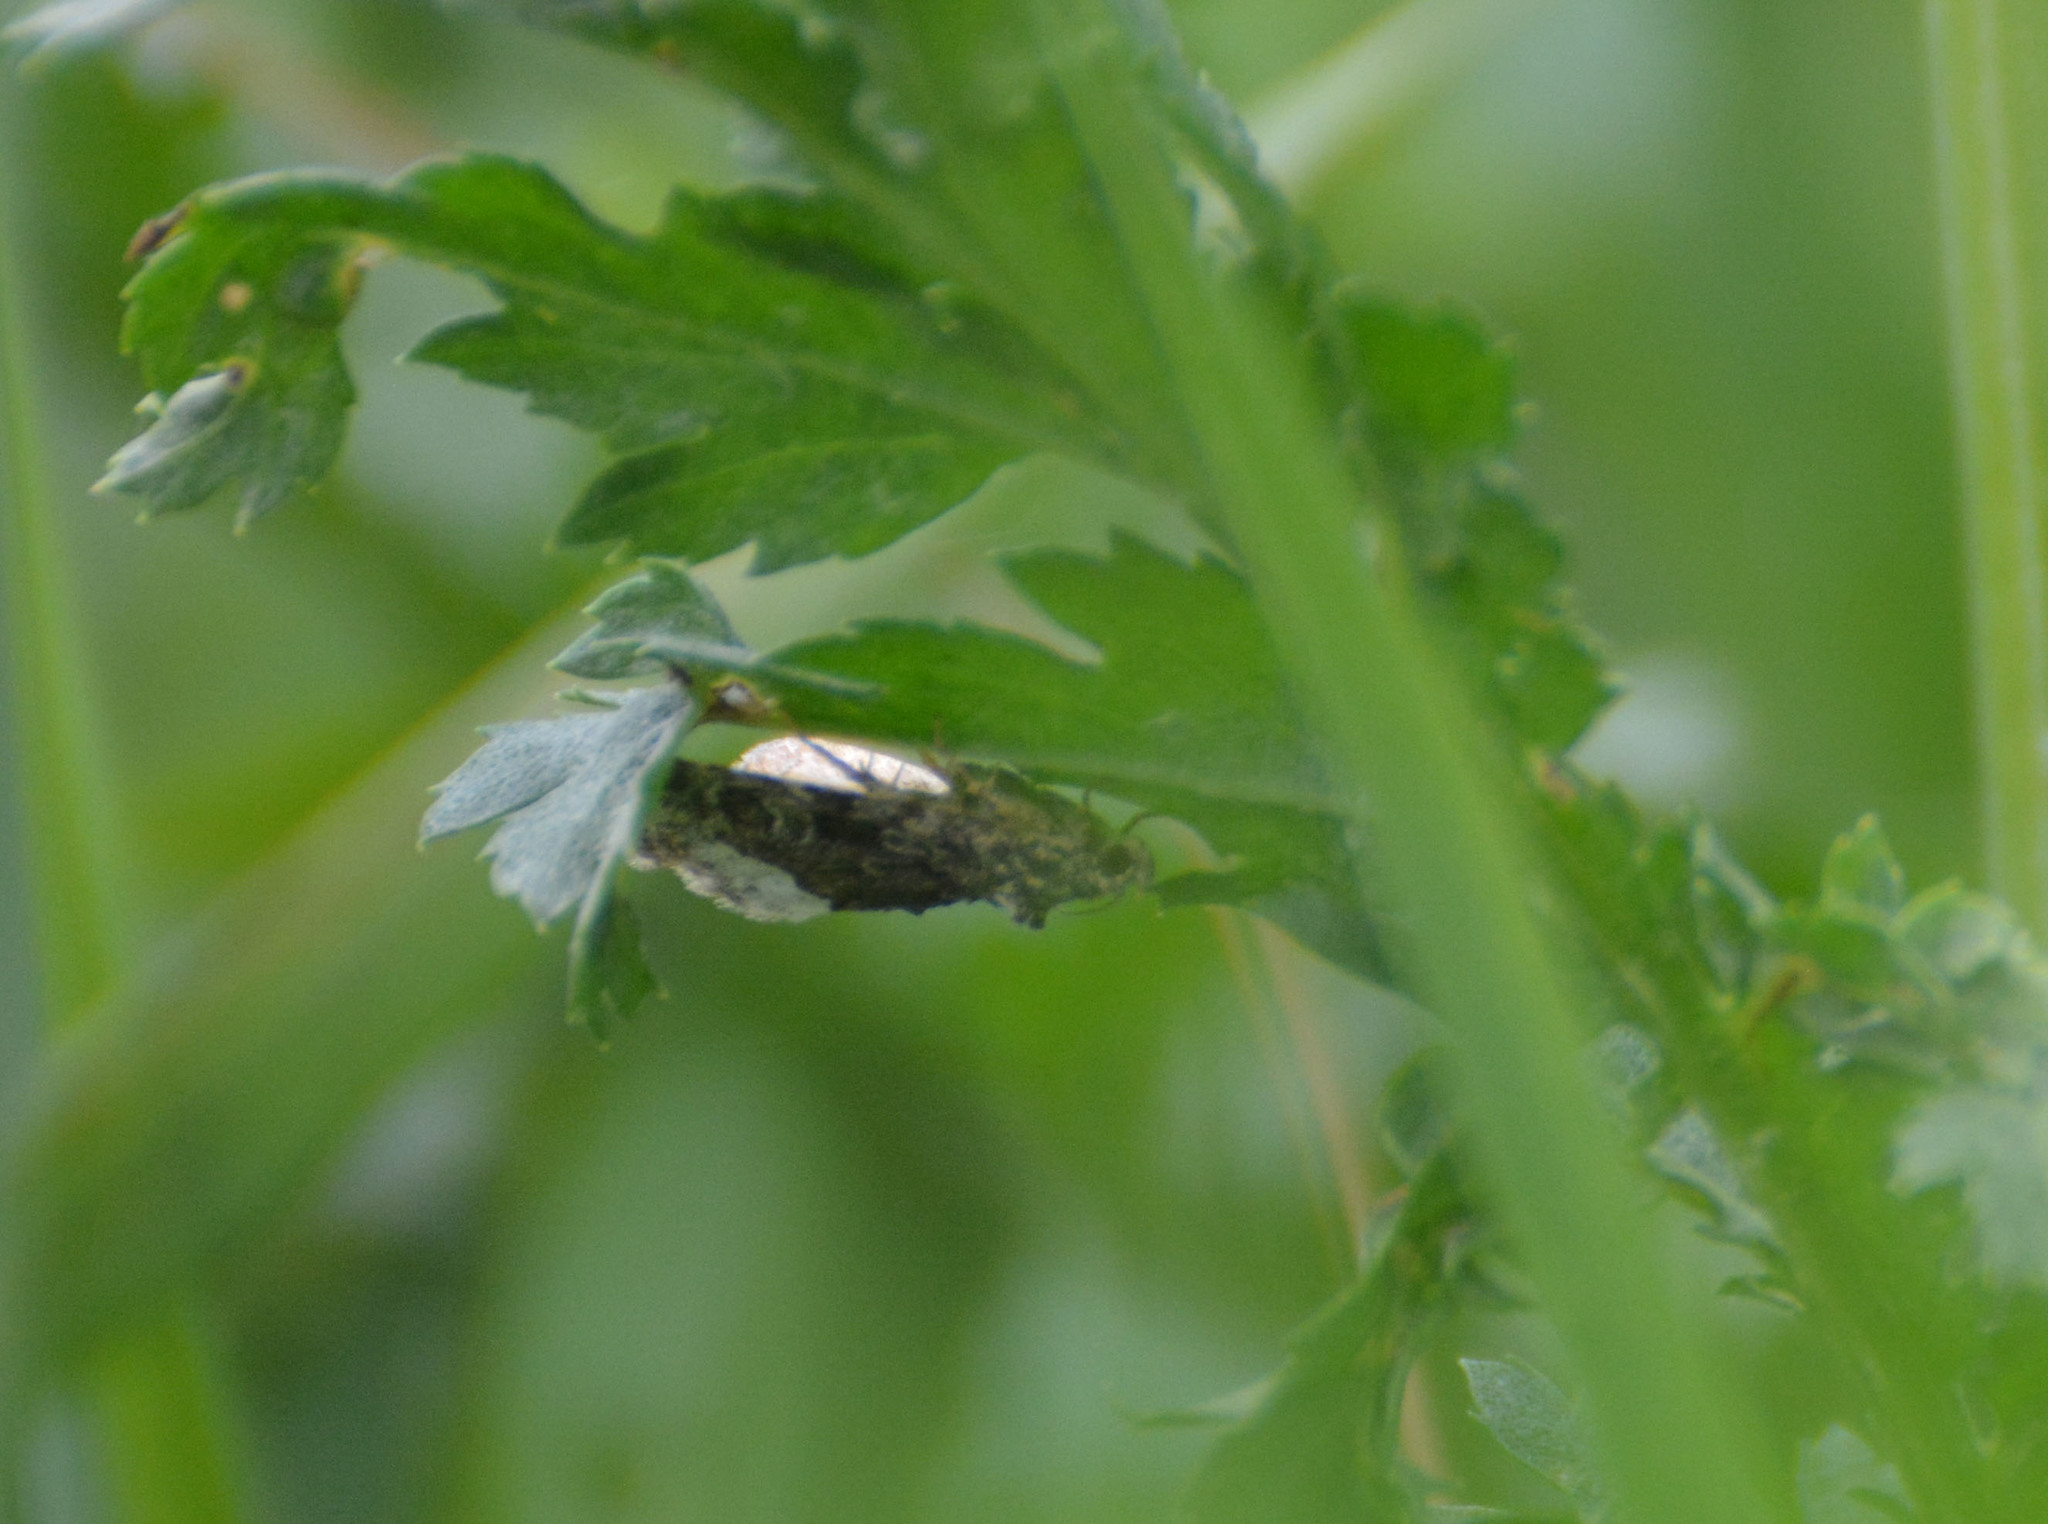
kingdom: Animalia
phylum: Arthropoda
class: Insecta
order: Lepidoptera
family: Noctuidae
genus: Deltote
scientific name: Deltote pygarga
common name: Marbled white spot
